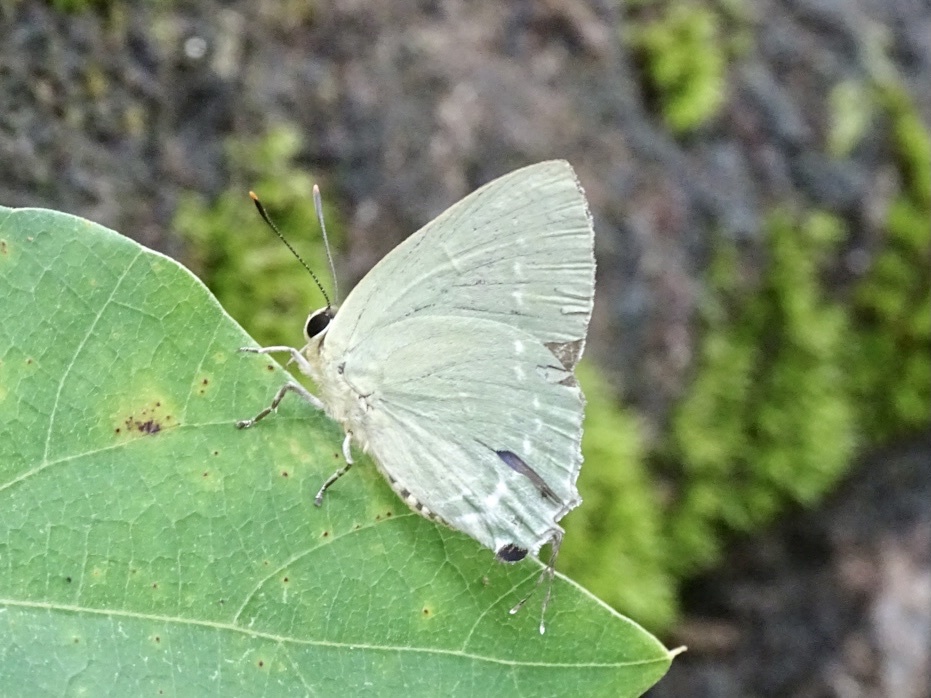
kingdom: Animalia
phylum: Arthropoda
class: Insecta
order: Lepidoptera
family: Lycaenidae
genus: Artipe
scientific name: Artipe eryx
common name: Green flash
